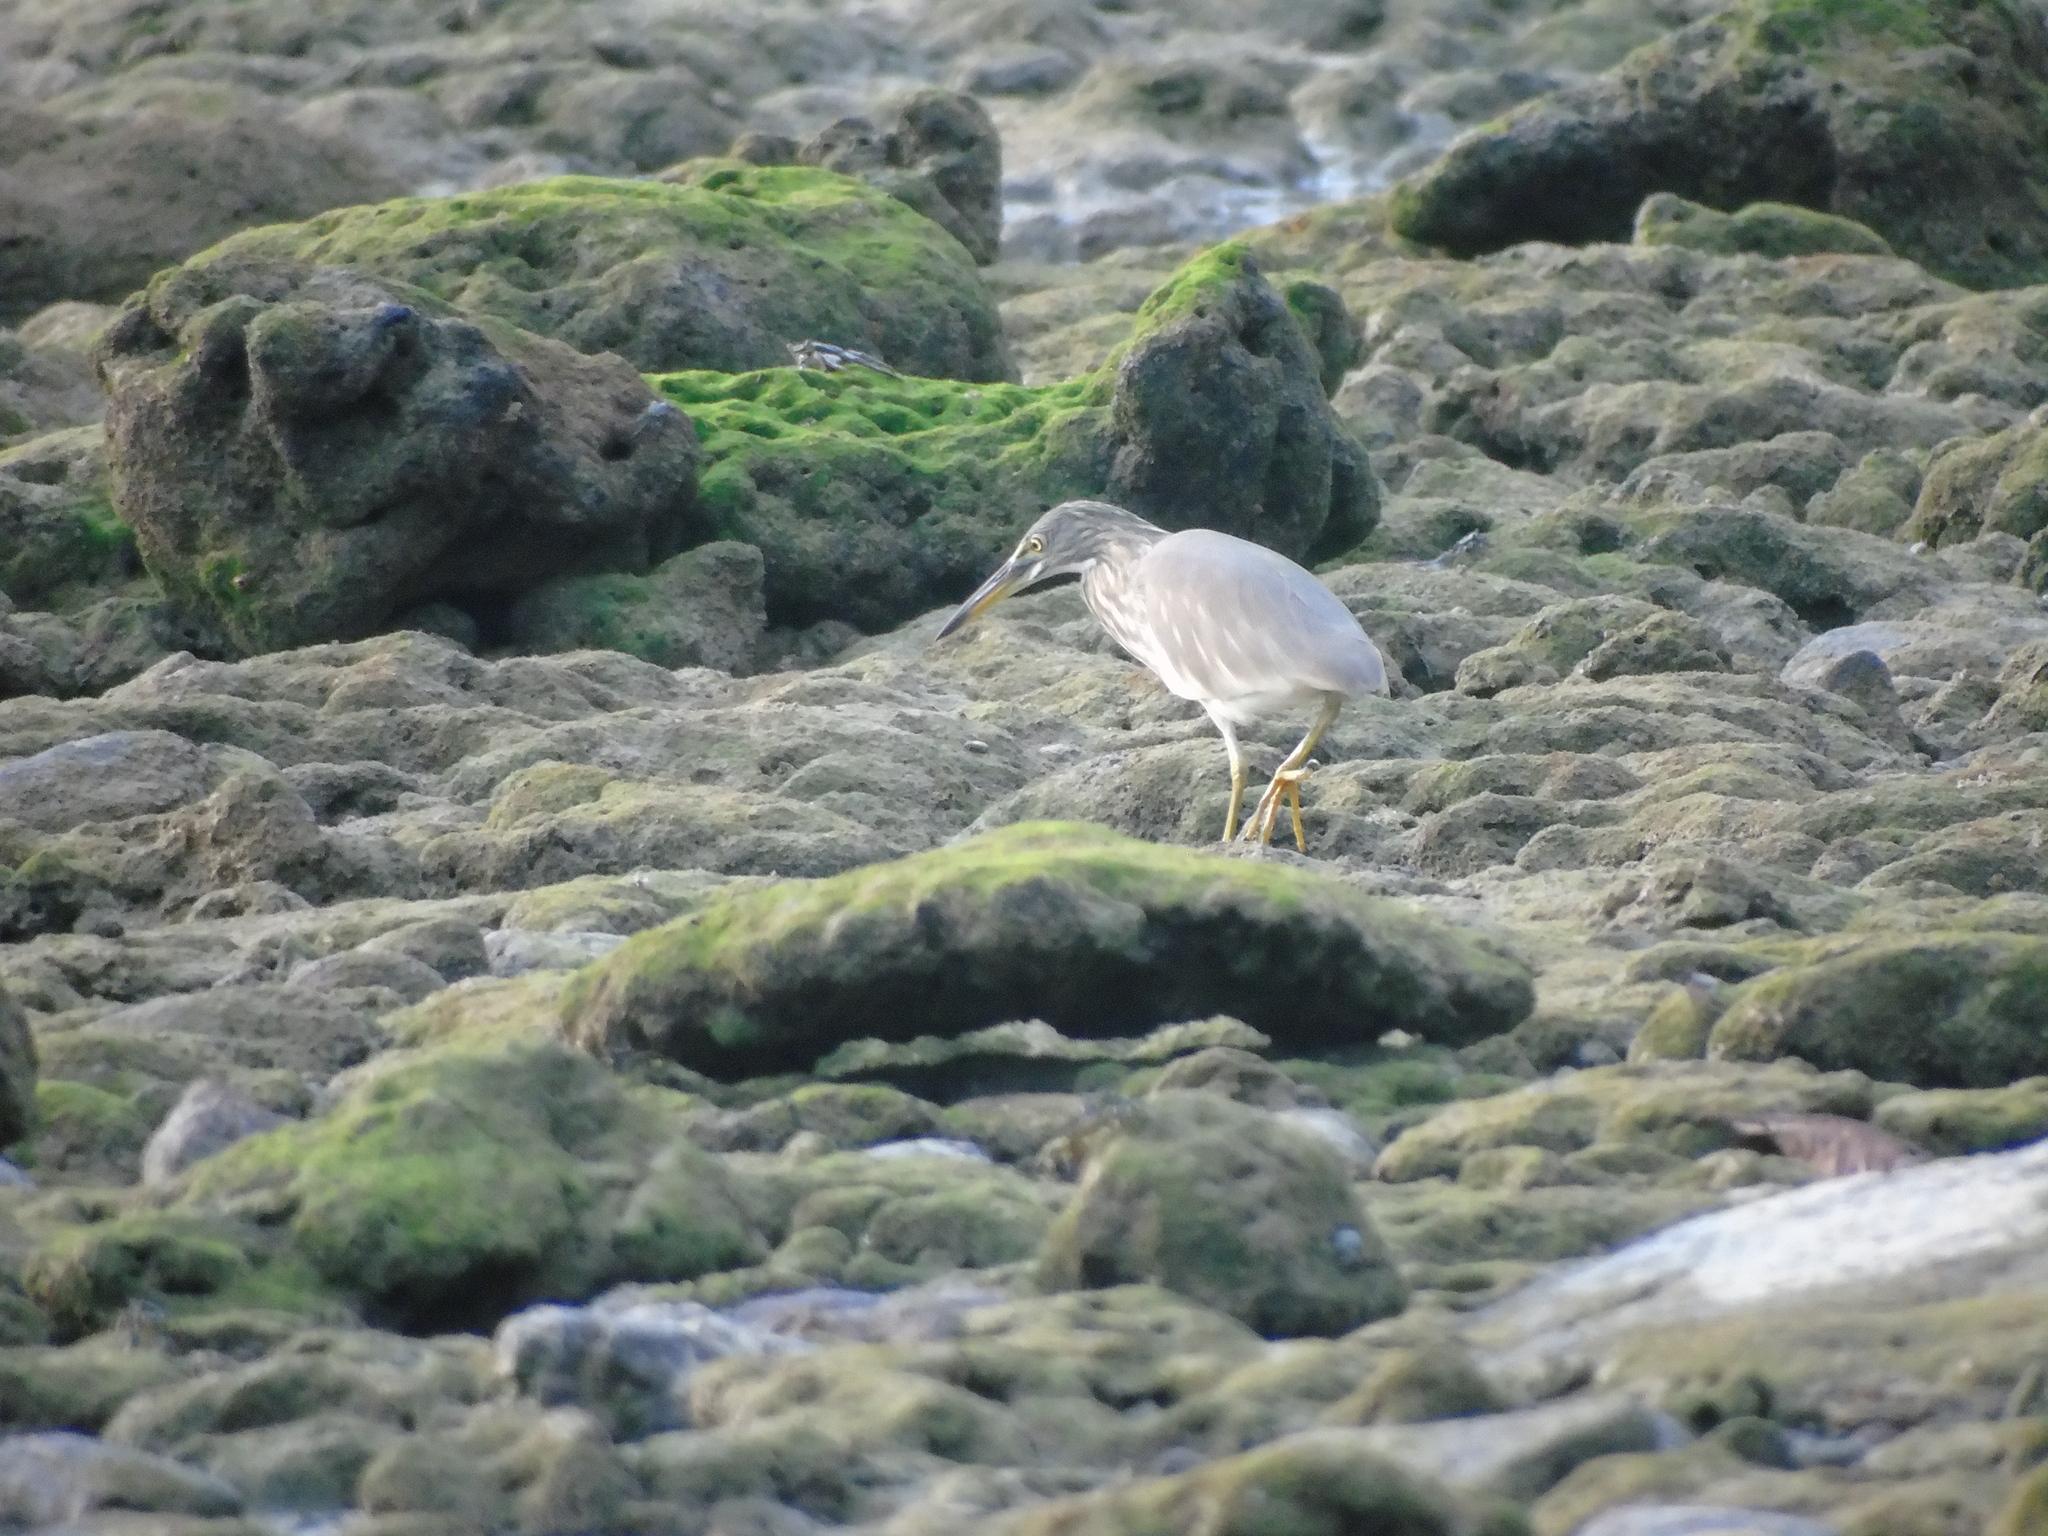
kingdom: Animalia
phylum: Chordata
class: Aves
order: Pelecaniformes
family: Ardeidae
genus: Ardeola
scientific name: Ardeola
